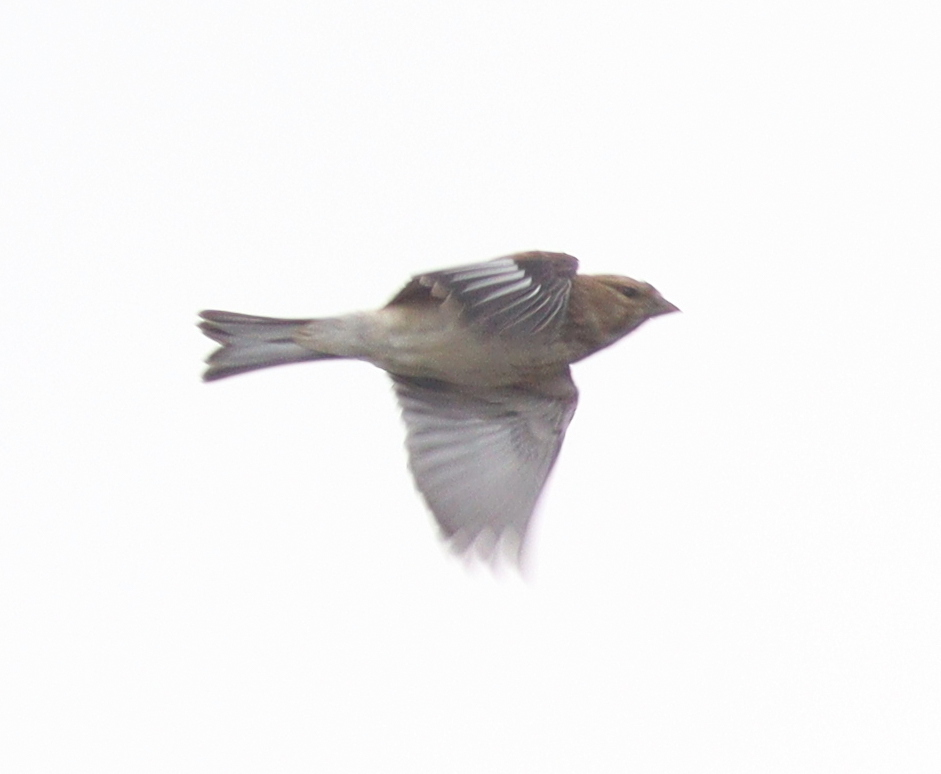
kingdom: Animalia
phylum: Chordata
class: Aves
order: Passeriformes
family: Fringillidae
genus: Linaria
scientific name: Linaria cannabina
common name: Common linnet
